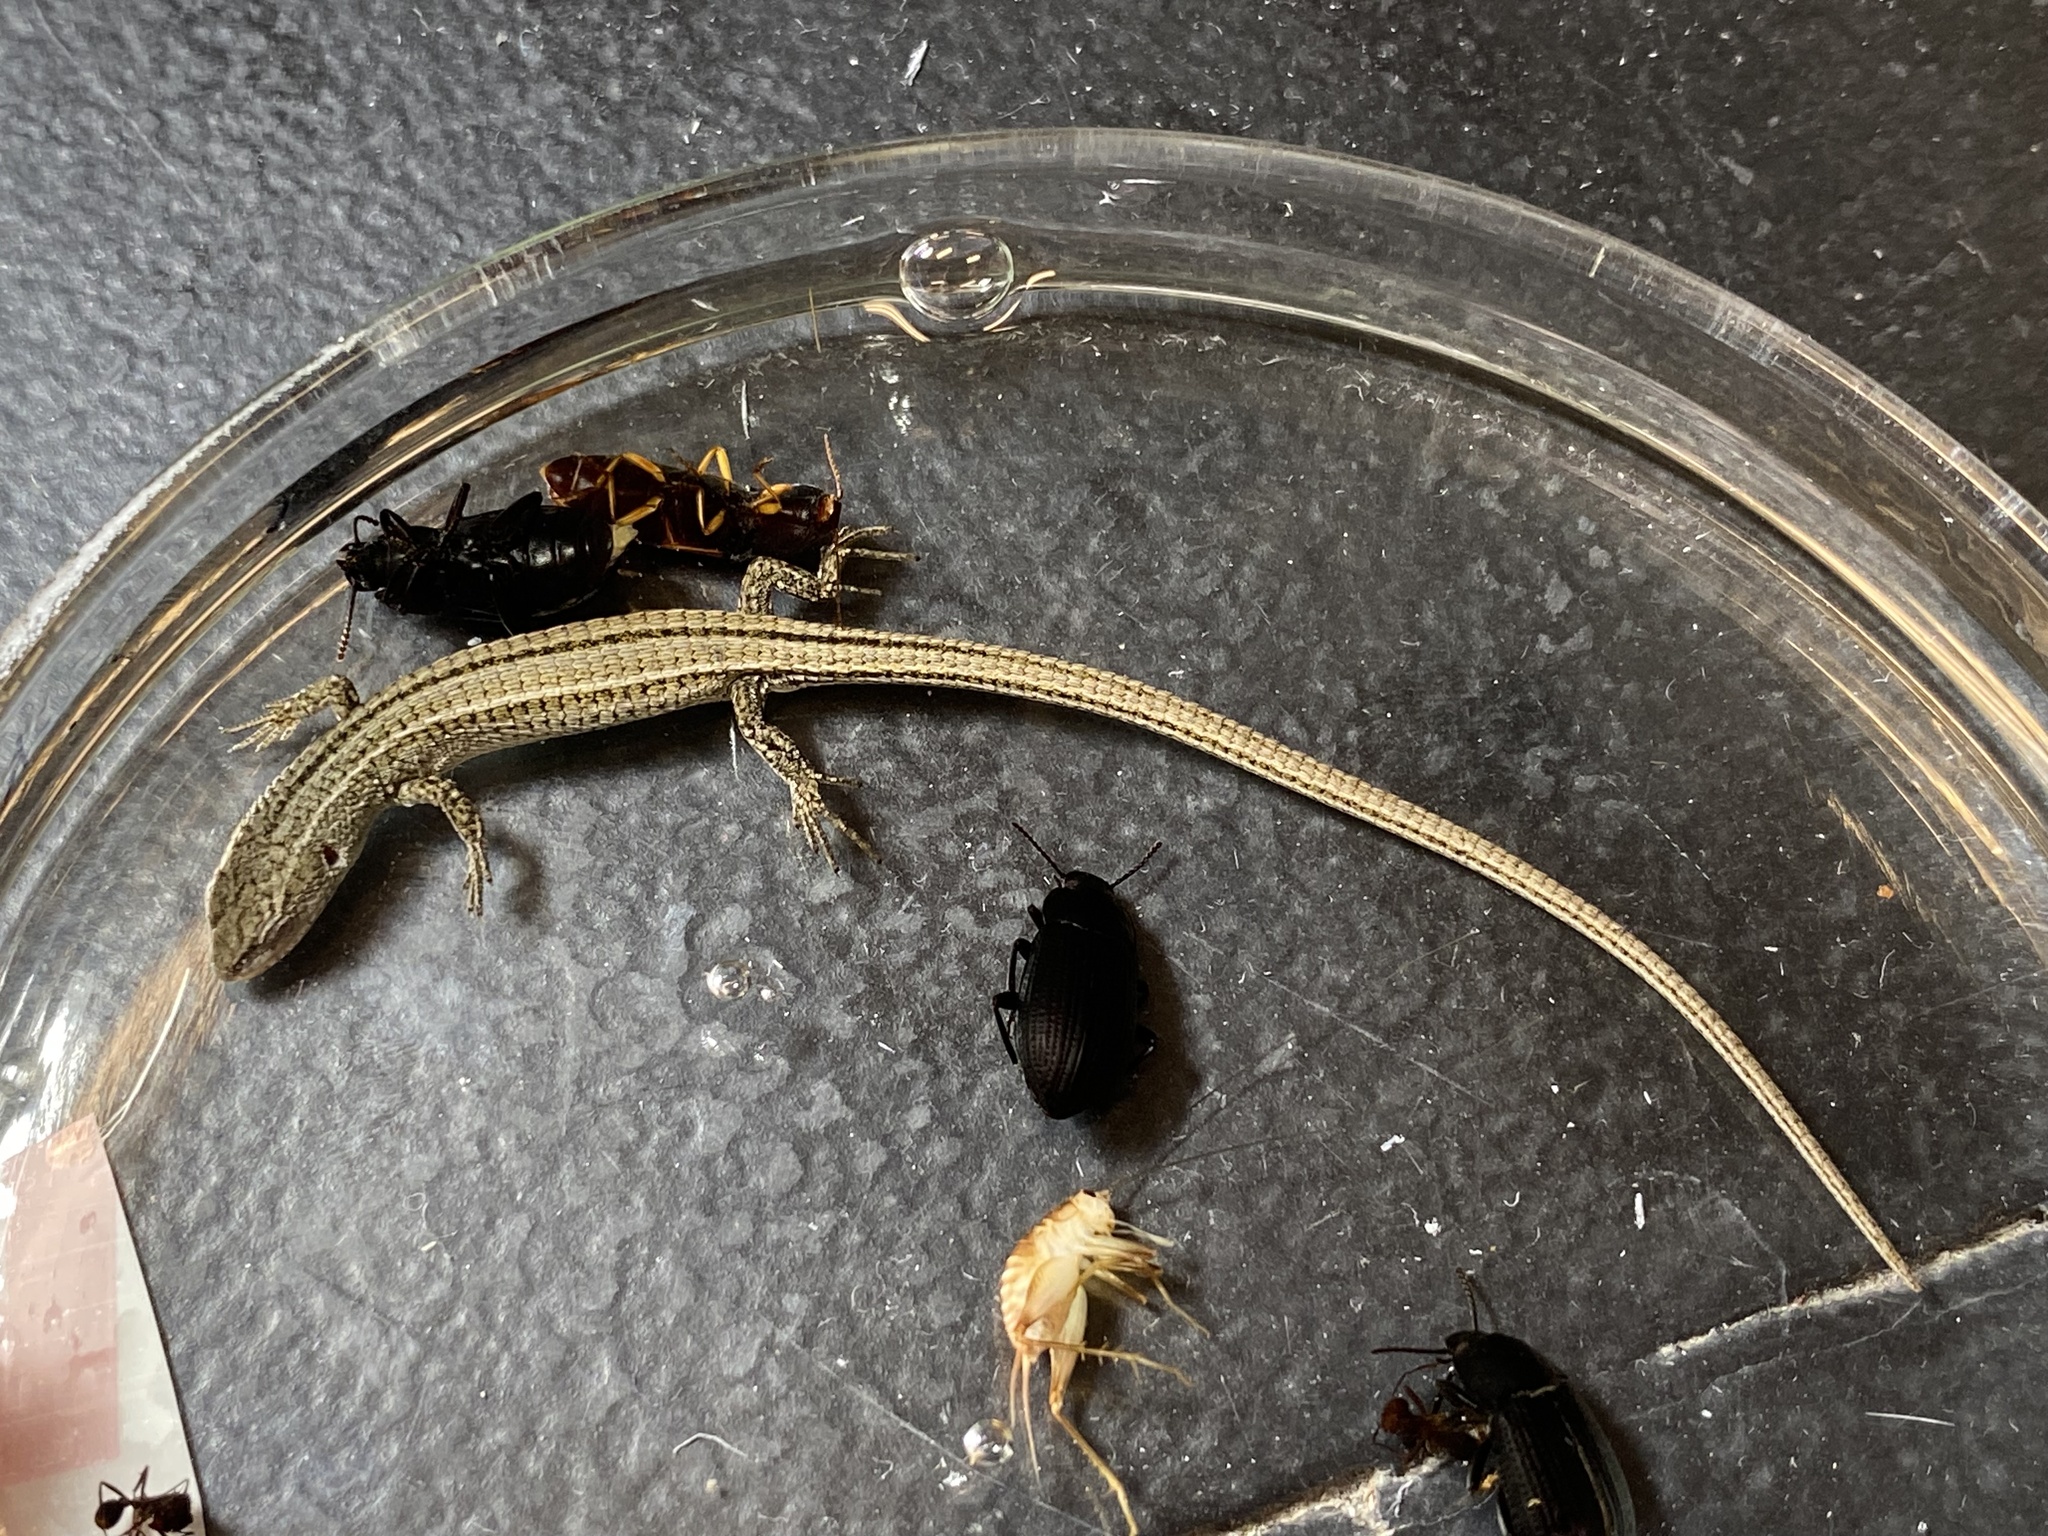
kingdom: Animalia
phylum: Chordata
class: Squamata
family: Gymnophthalmidae
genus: Cercosaura
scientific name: Cercosaura schreibersii
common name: Schreibers' many-fingered teiid
